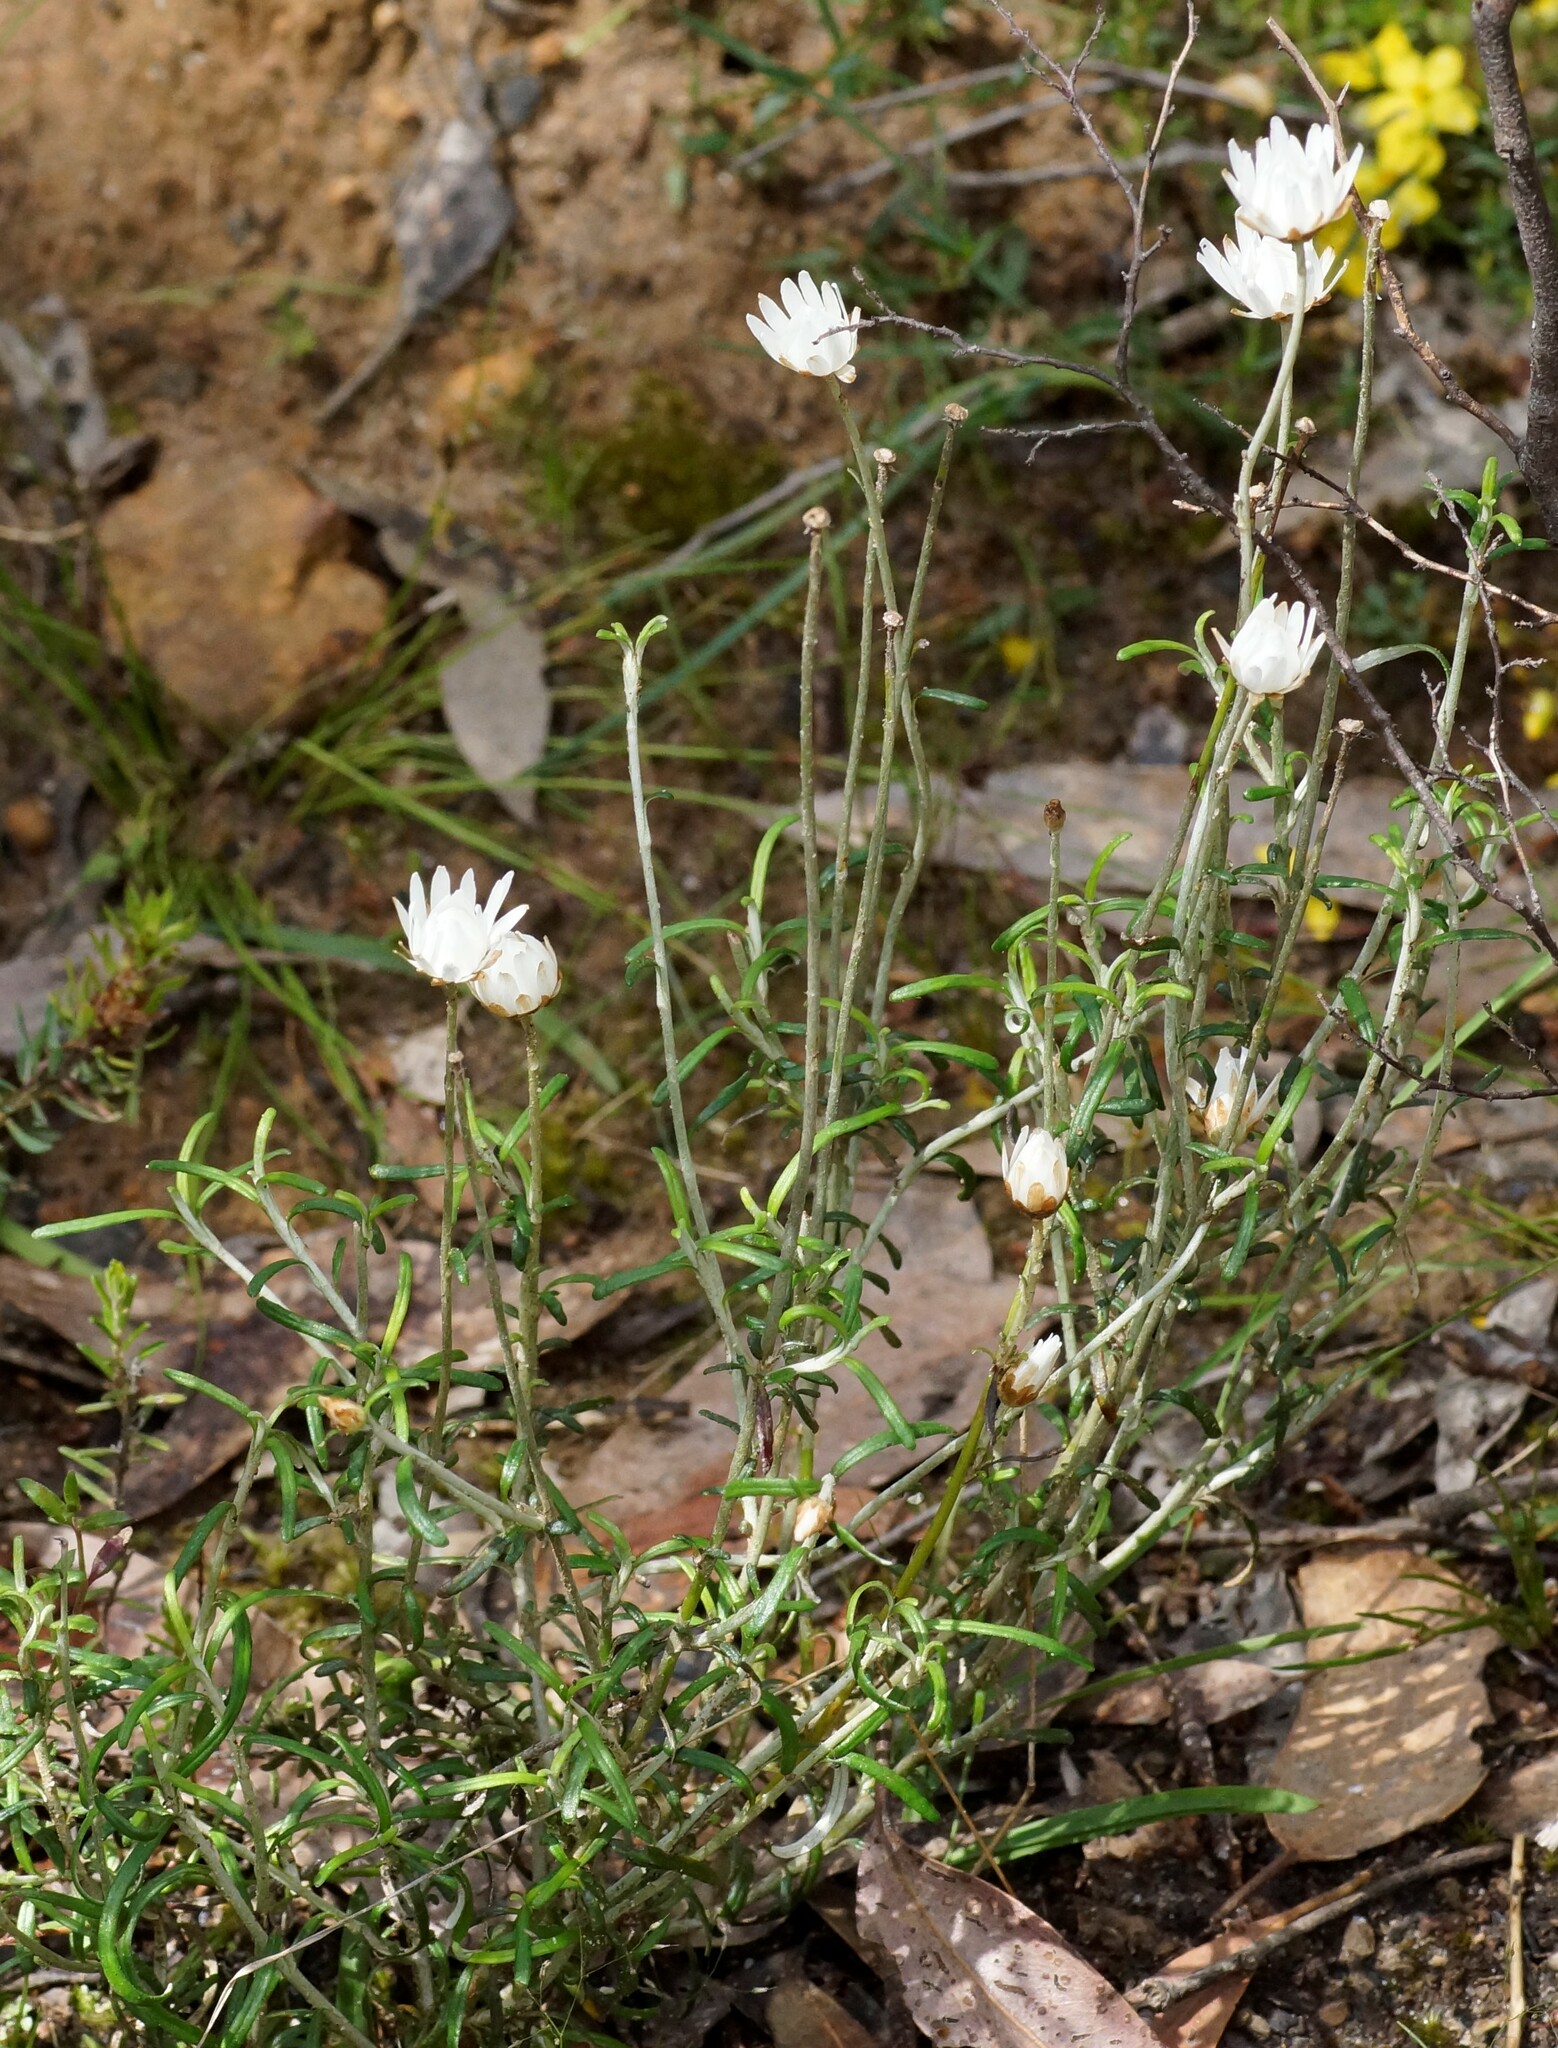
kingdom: Plantae
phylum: Tracheophyta
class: Magnoliopsida
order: Asterales
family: Asteraceae
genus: Argentipallium
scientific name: Argentipallium obtusifolium
